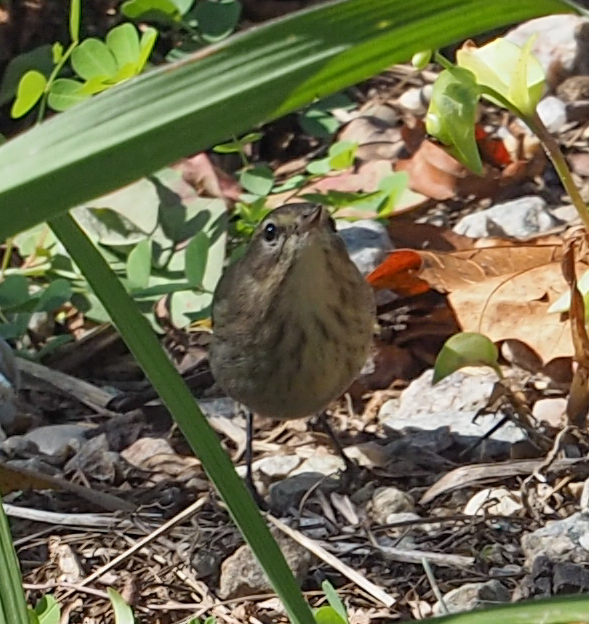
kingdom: Animalia
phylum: Chordata
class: Aves
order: Passeriformes
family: Parulidae
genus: Setophaga
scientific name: Setophaga palmarum
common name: Palm warbler
